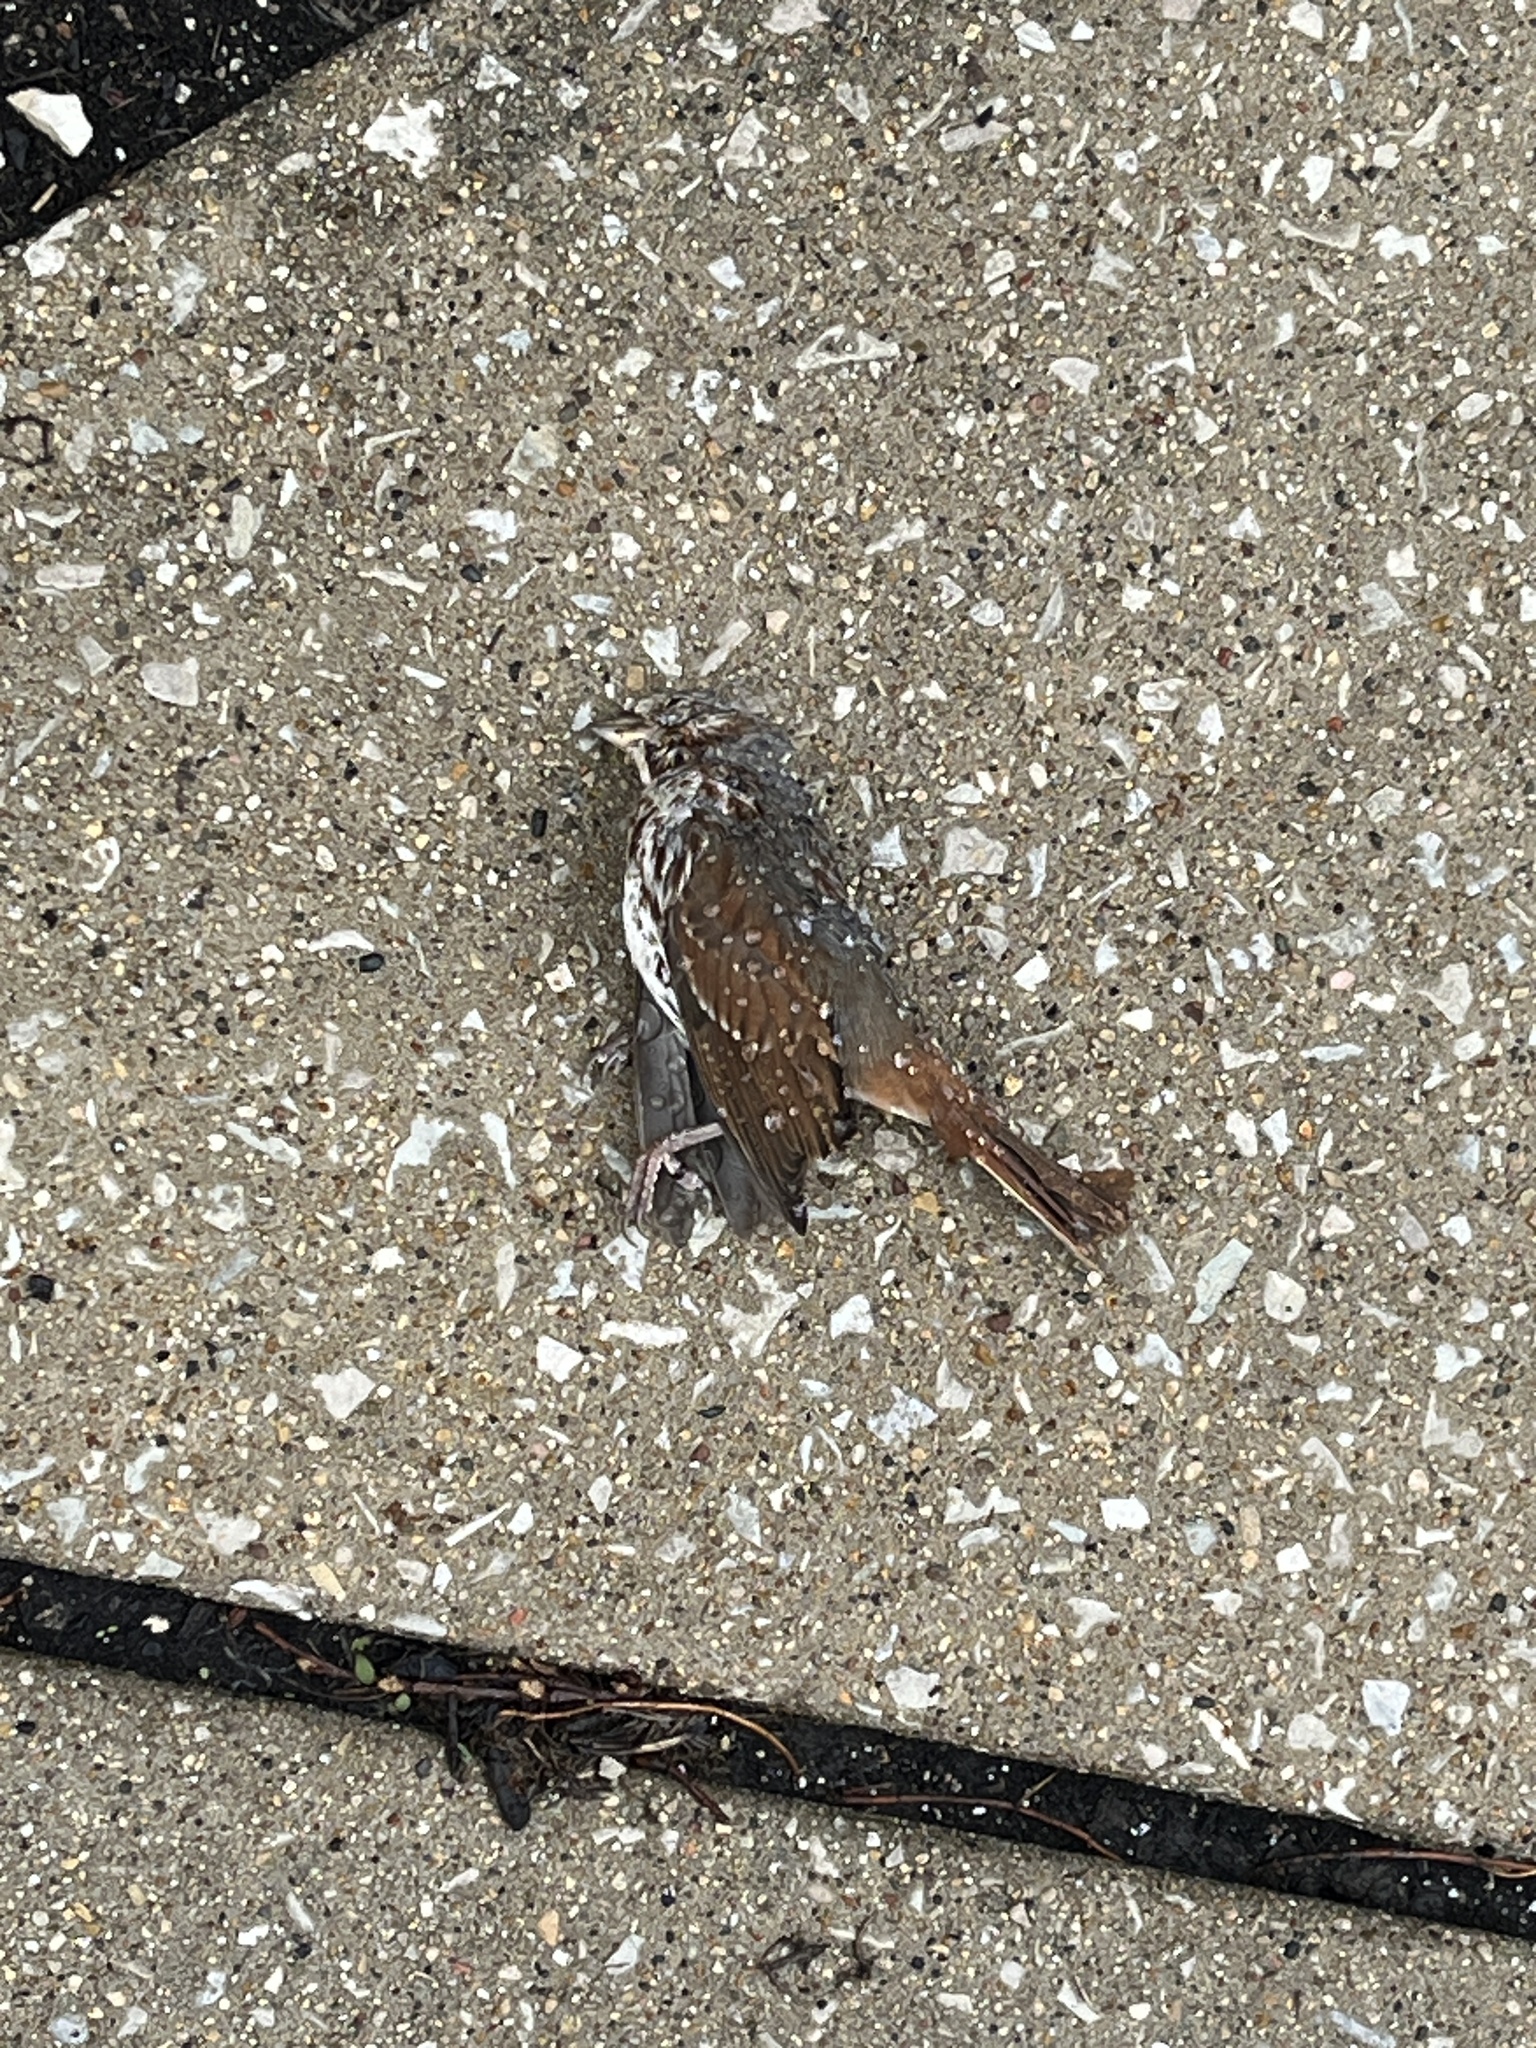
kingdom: Animalia
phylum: Chordata
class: Aves
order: Passeriformes
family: Passerellidae
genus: Melospiza
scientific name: Melospiza melodia
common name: Song sparrow
